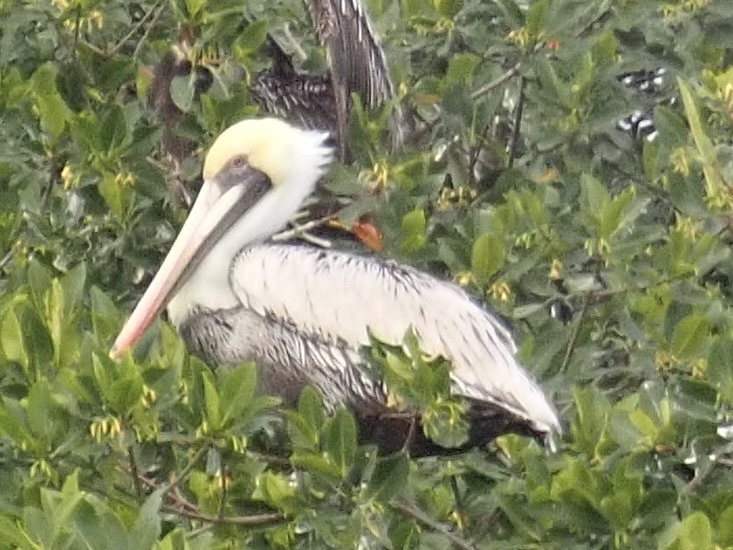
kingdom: Animalia
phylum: Chordata
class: Aves
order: Pelecaniformes
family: Pelecanidae
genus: Pelecanus
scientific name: Pelecanus occidentalis
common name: Brown pelican
